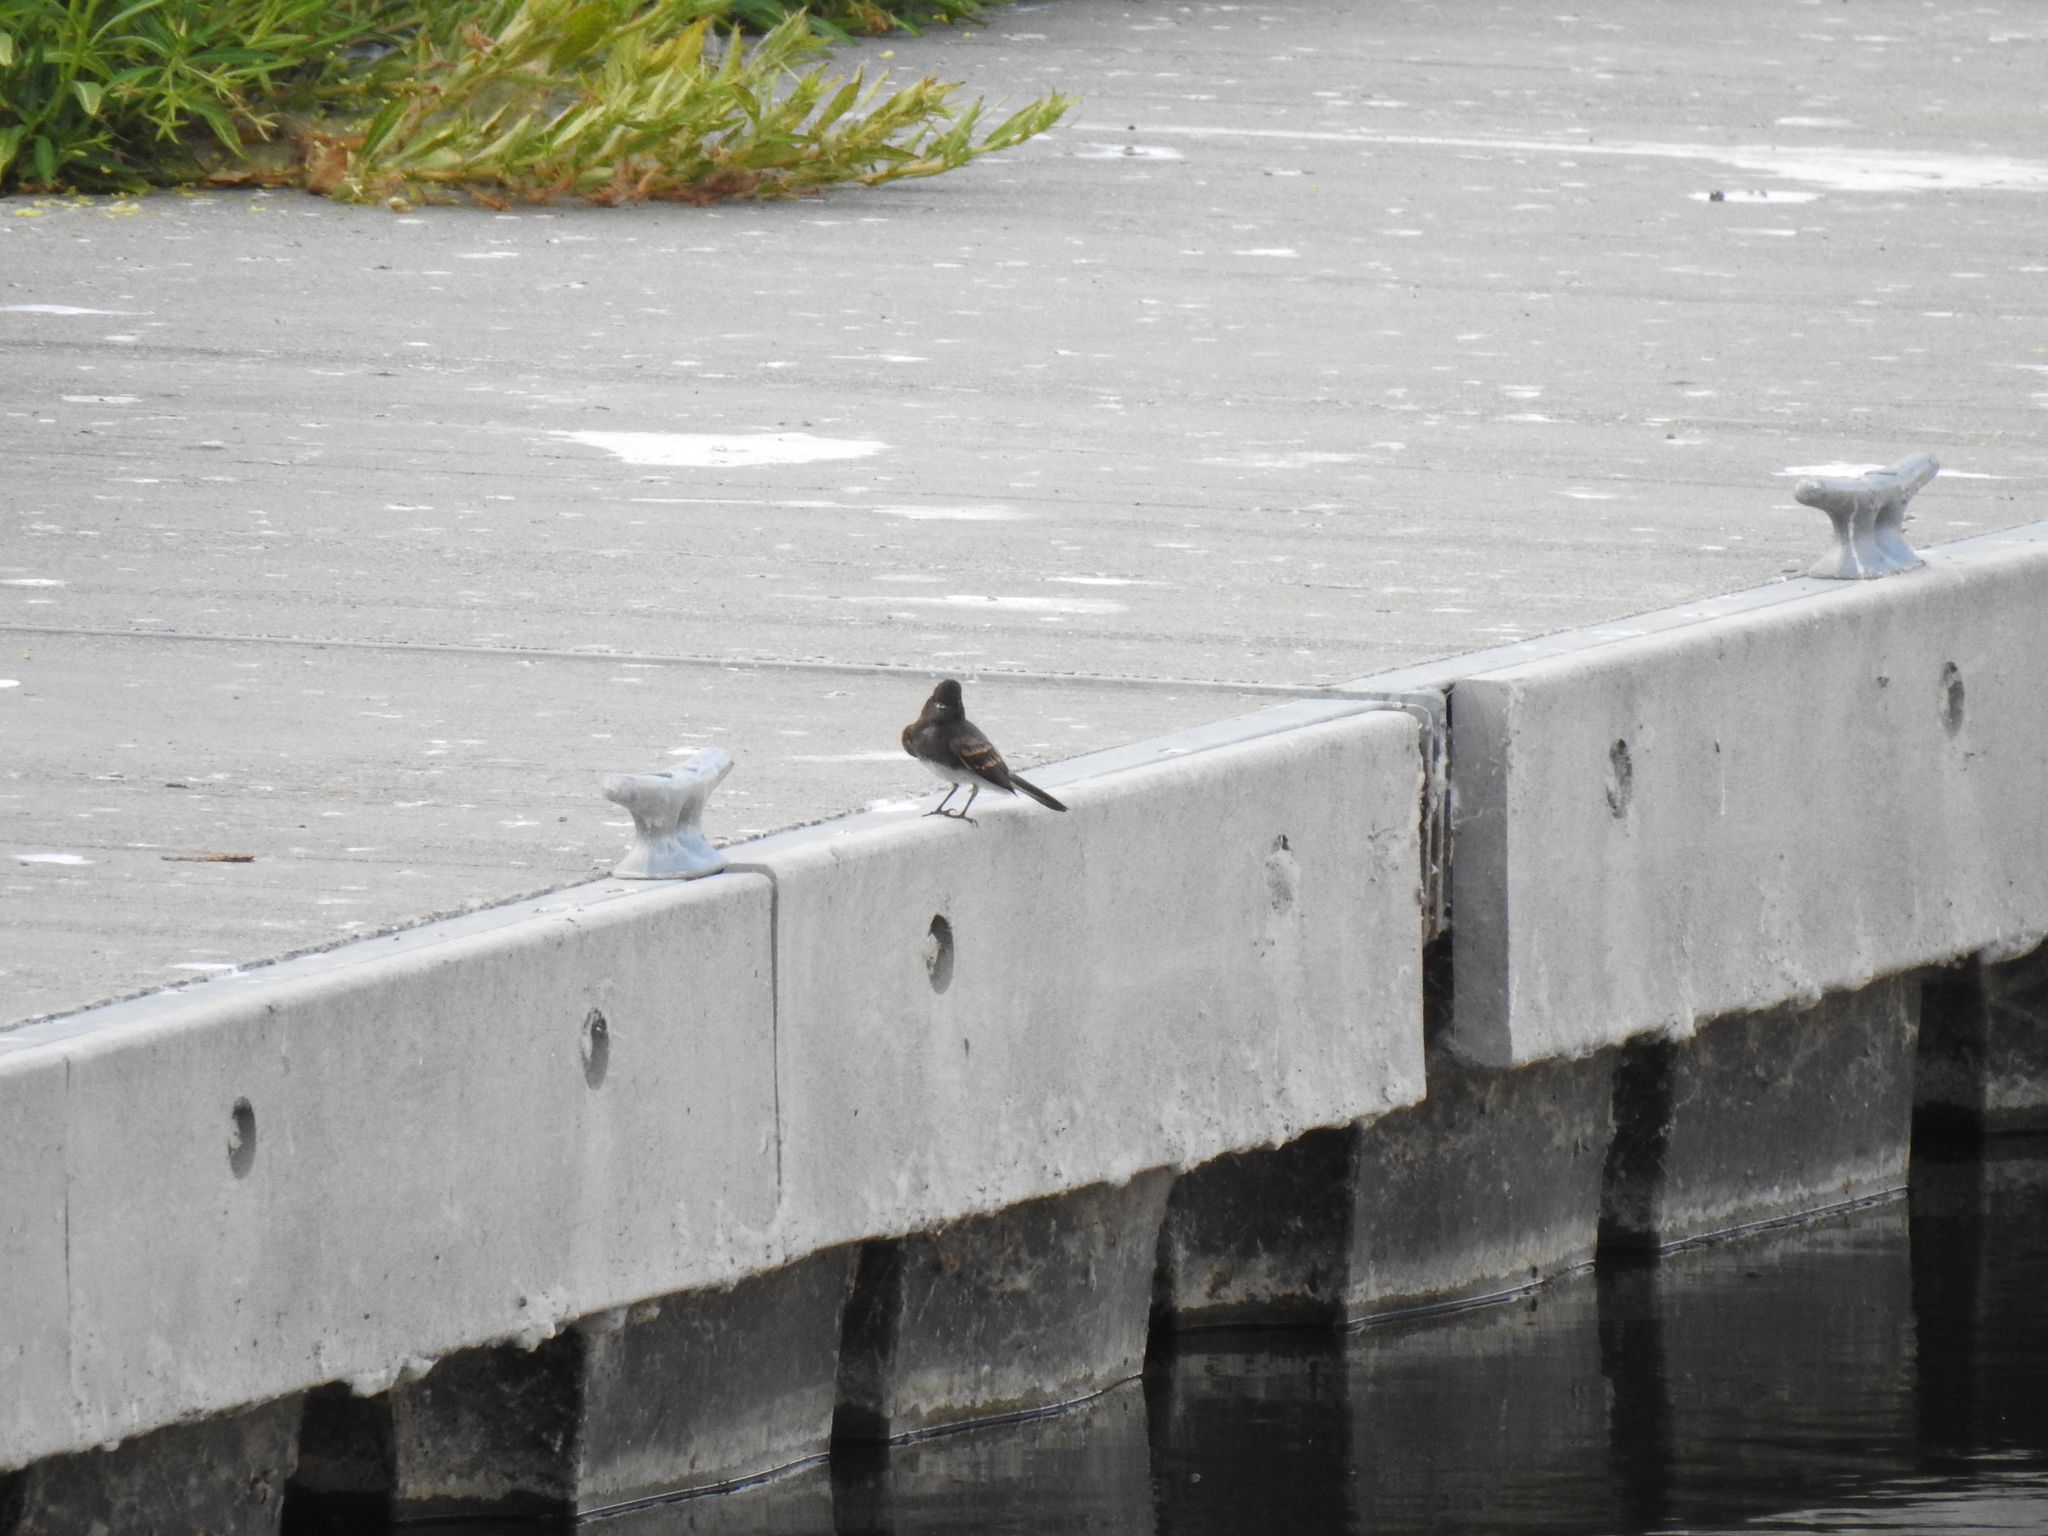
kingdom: Animalia
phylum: Chordata
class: Aves
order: Passeriformes
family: Tyrannidae
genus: Sayornis
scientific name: Sayornis nigricans
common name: Black phoebe
